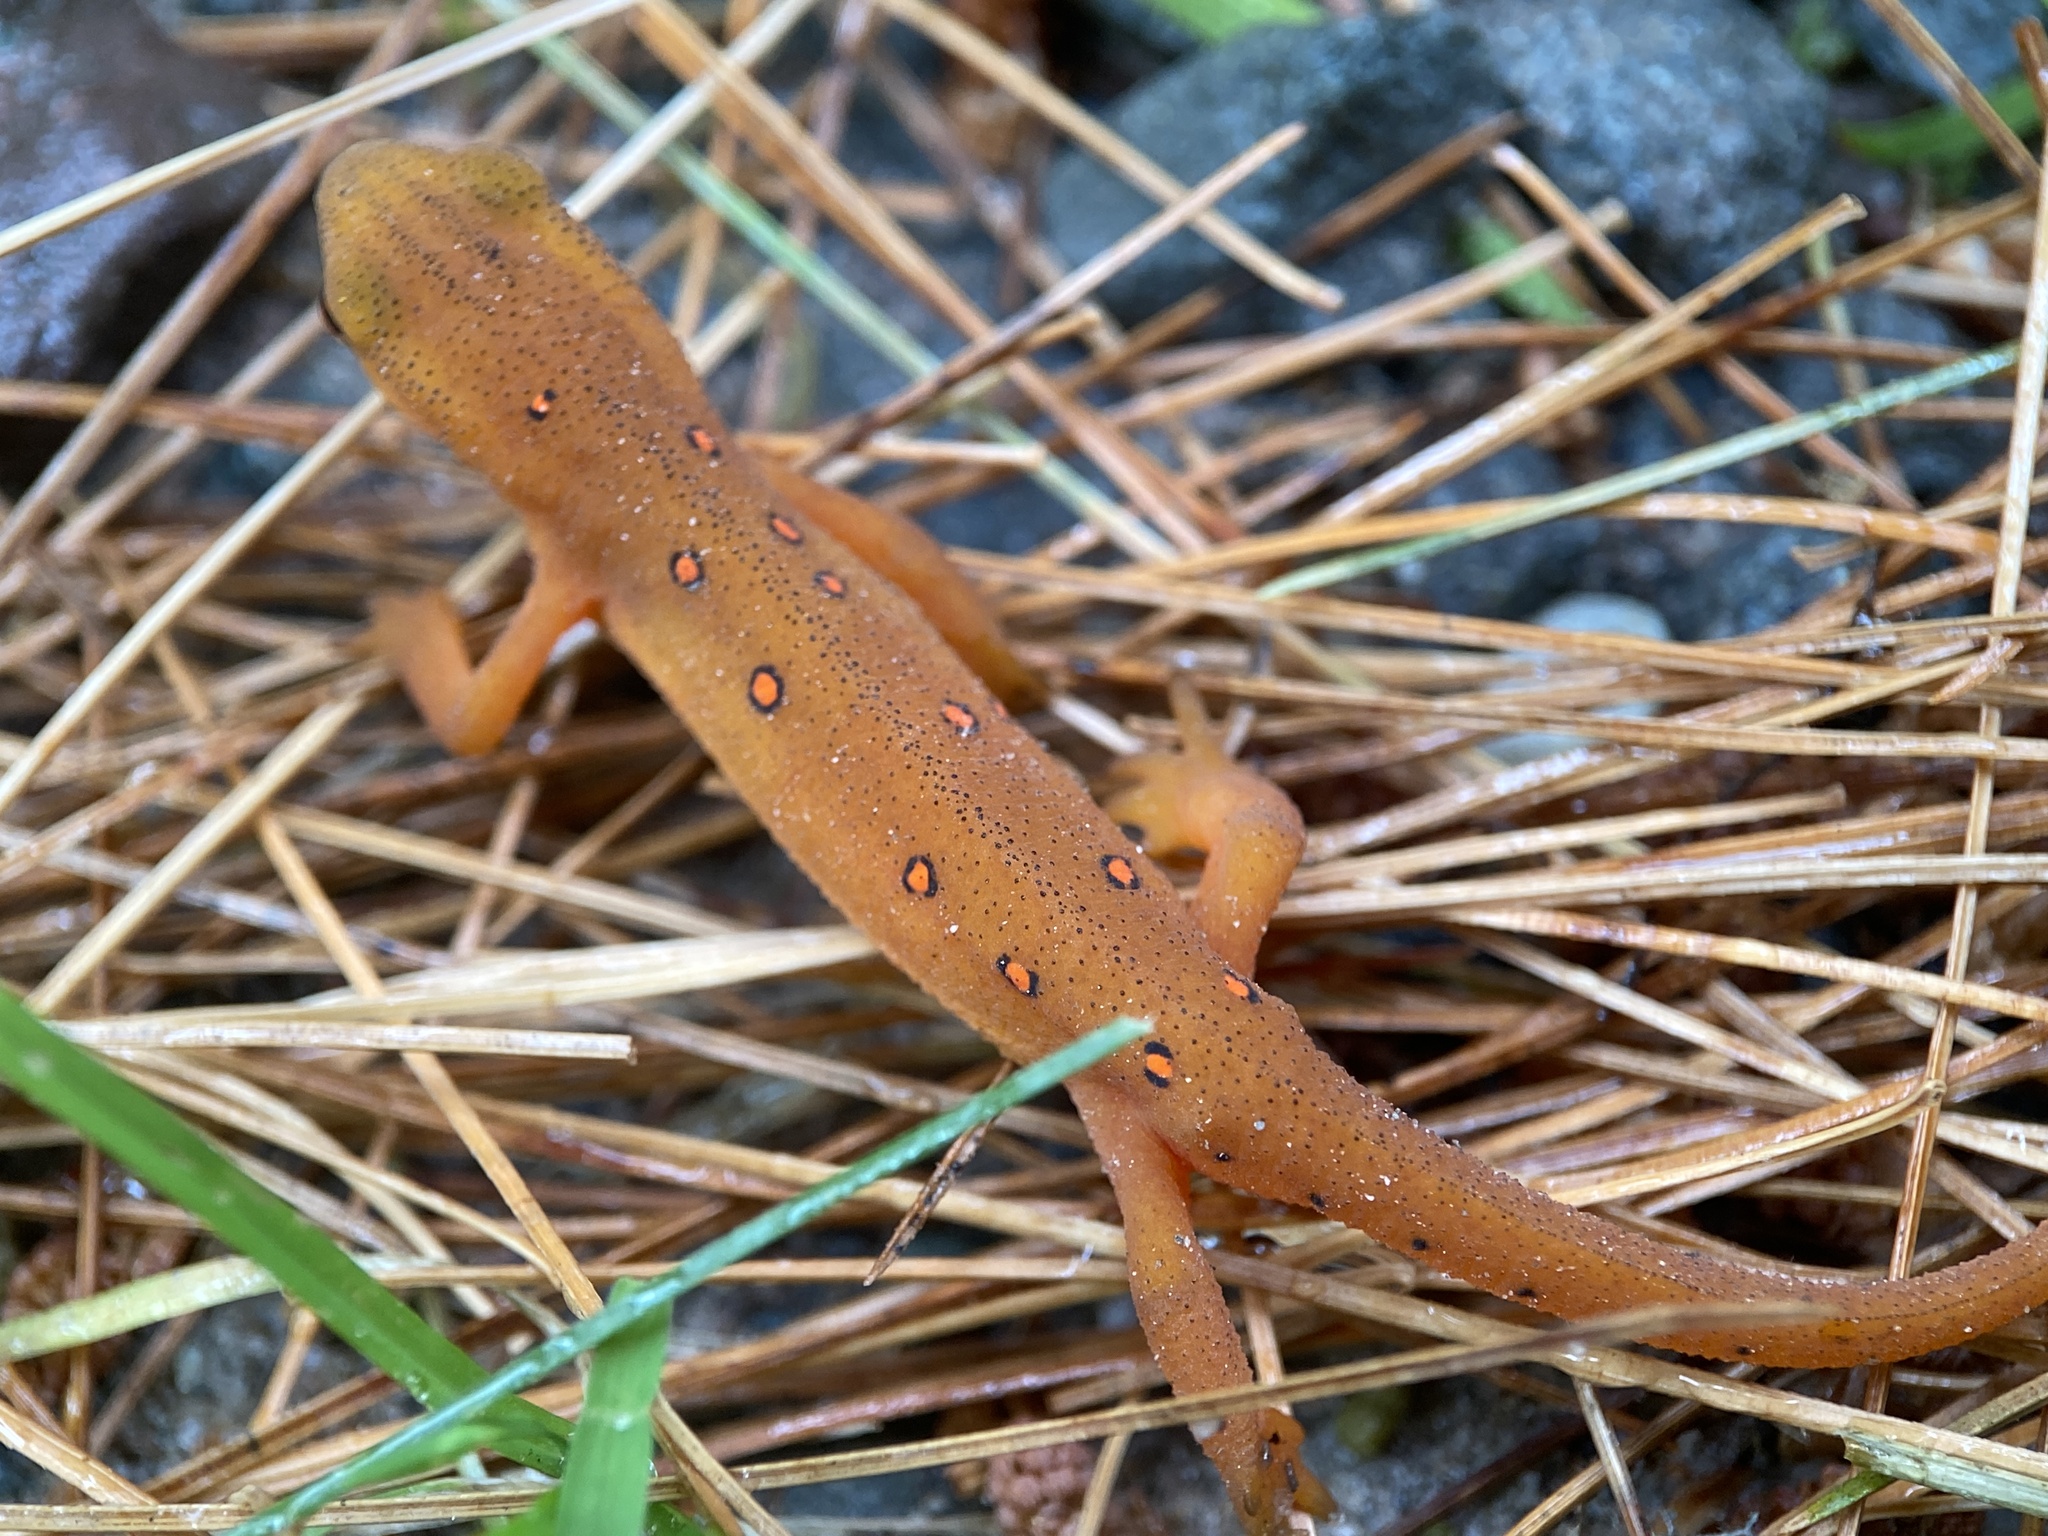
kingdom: Animalia
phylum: Chordata
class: Amphibia
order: Caudata
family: Salamandridae
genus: Notophthalmus
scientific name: Notophthalmus viridescens
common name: Eastern newt
